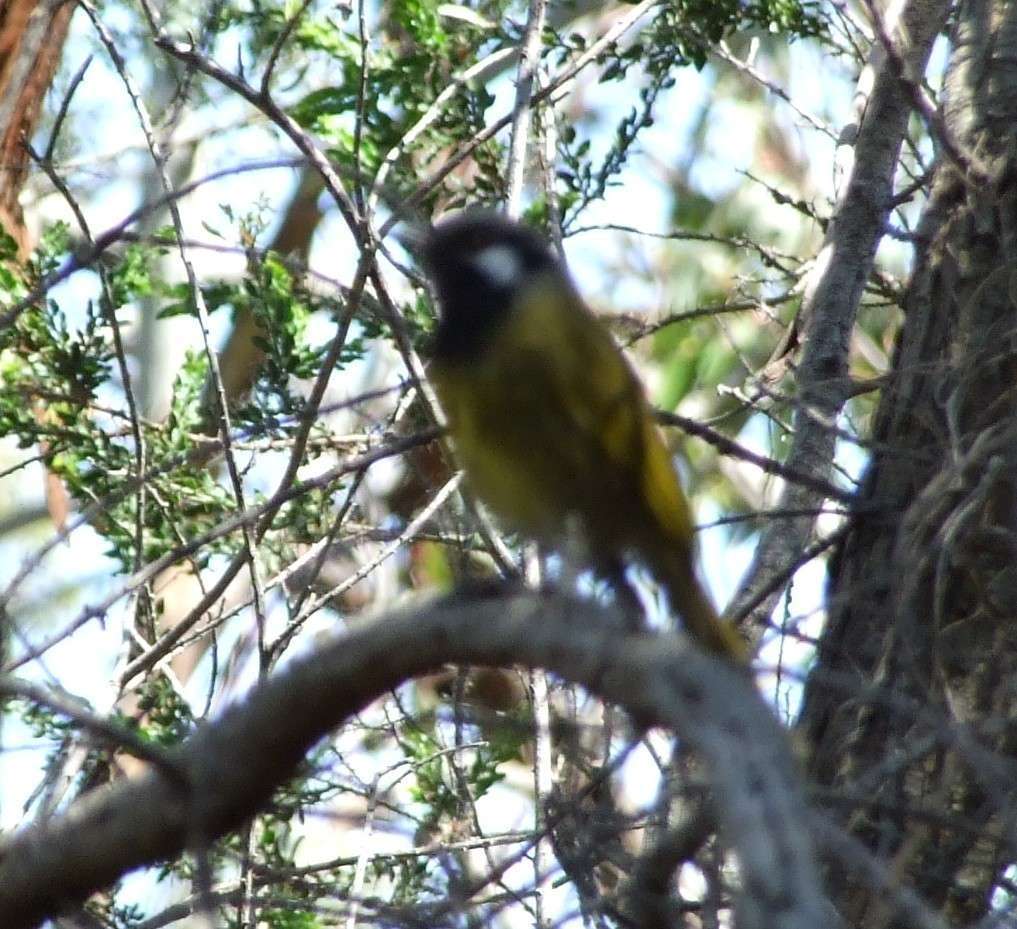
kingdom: Animalia
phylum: Chordata
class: Aves
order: Passeriformes
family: Meliphagidae
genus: Nesoptilotis
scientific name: Nesoptilotis leucotis
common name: White-eared honeyeater
